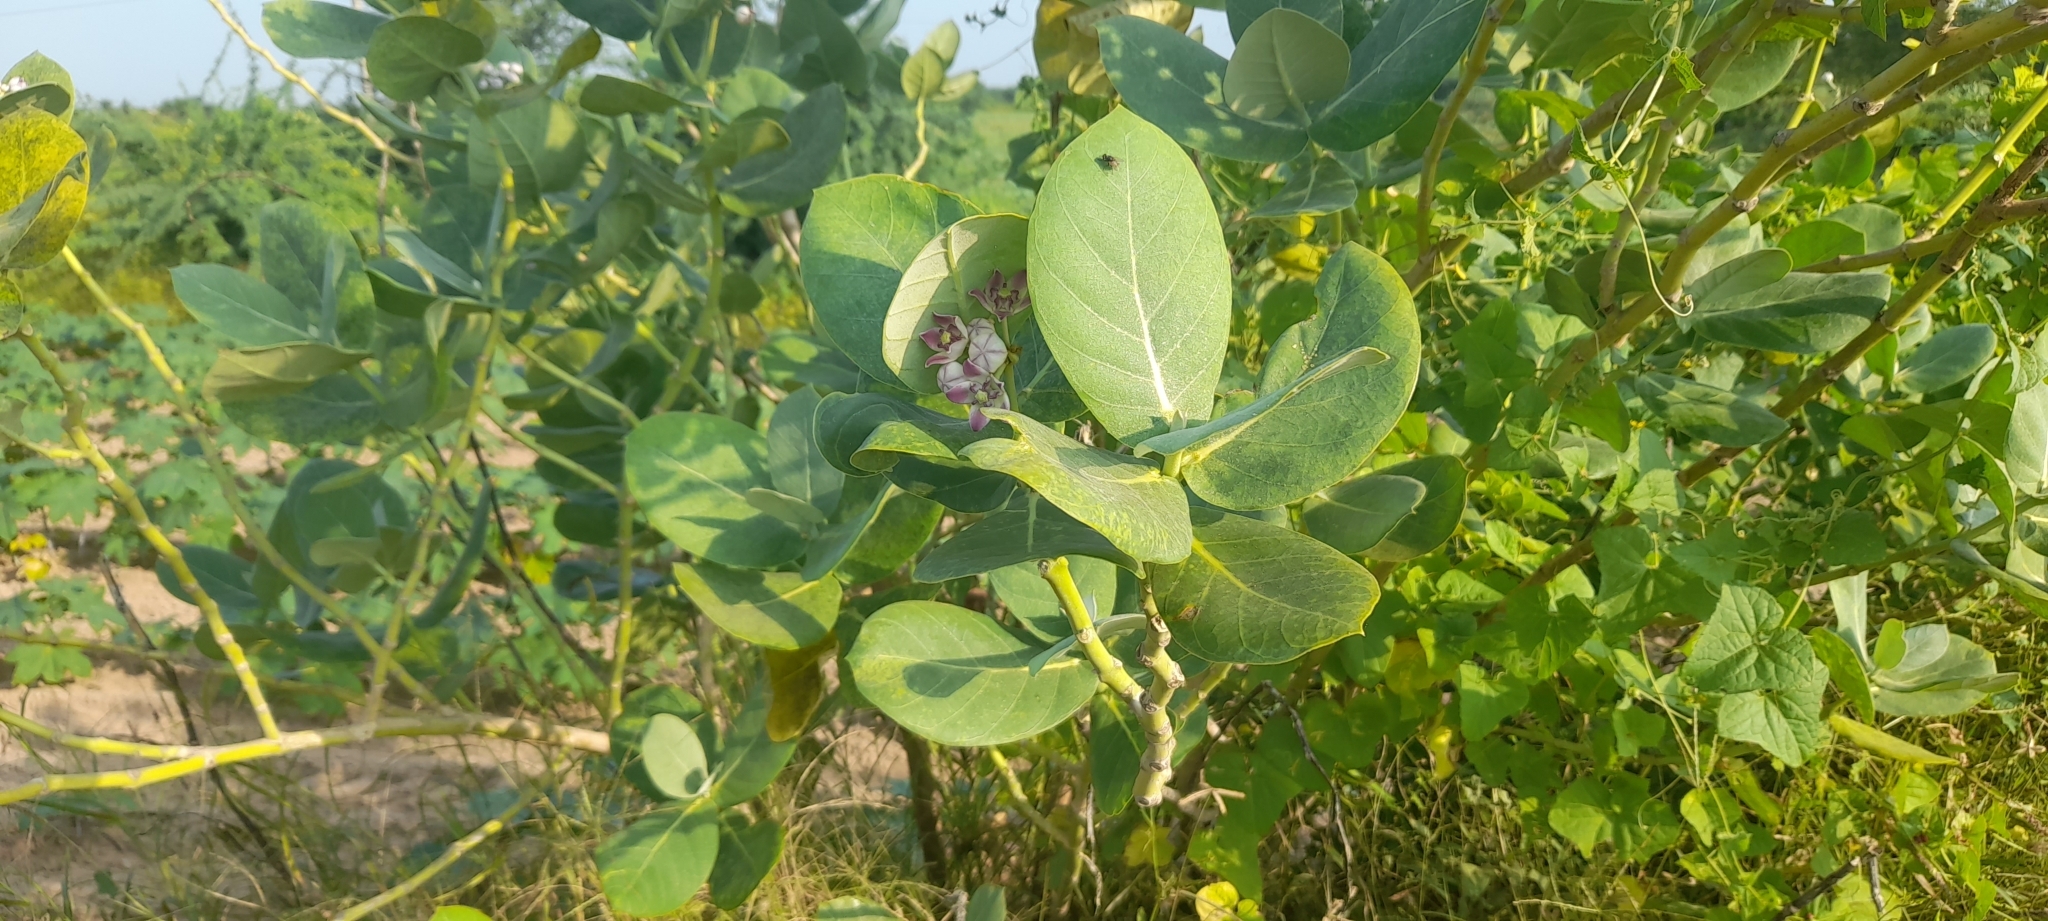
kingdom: Plantae
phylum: Tracheophyta
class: Magnoliopsida
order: Gentianales
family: Apocynaceae
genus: Calotropis
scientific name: Calotropis procera
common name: Roostertree
